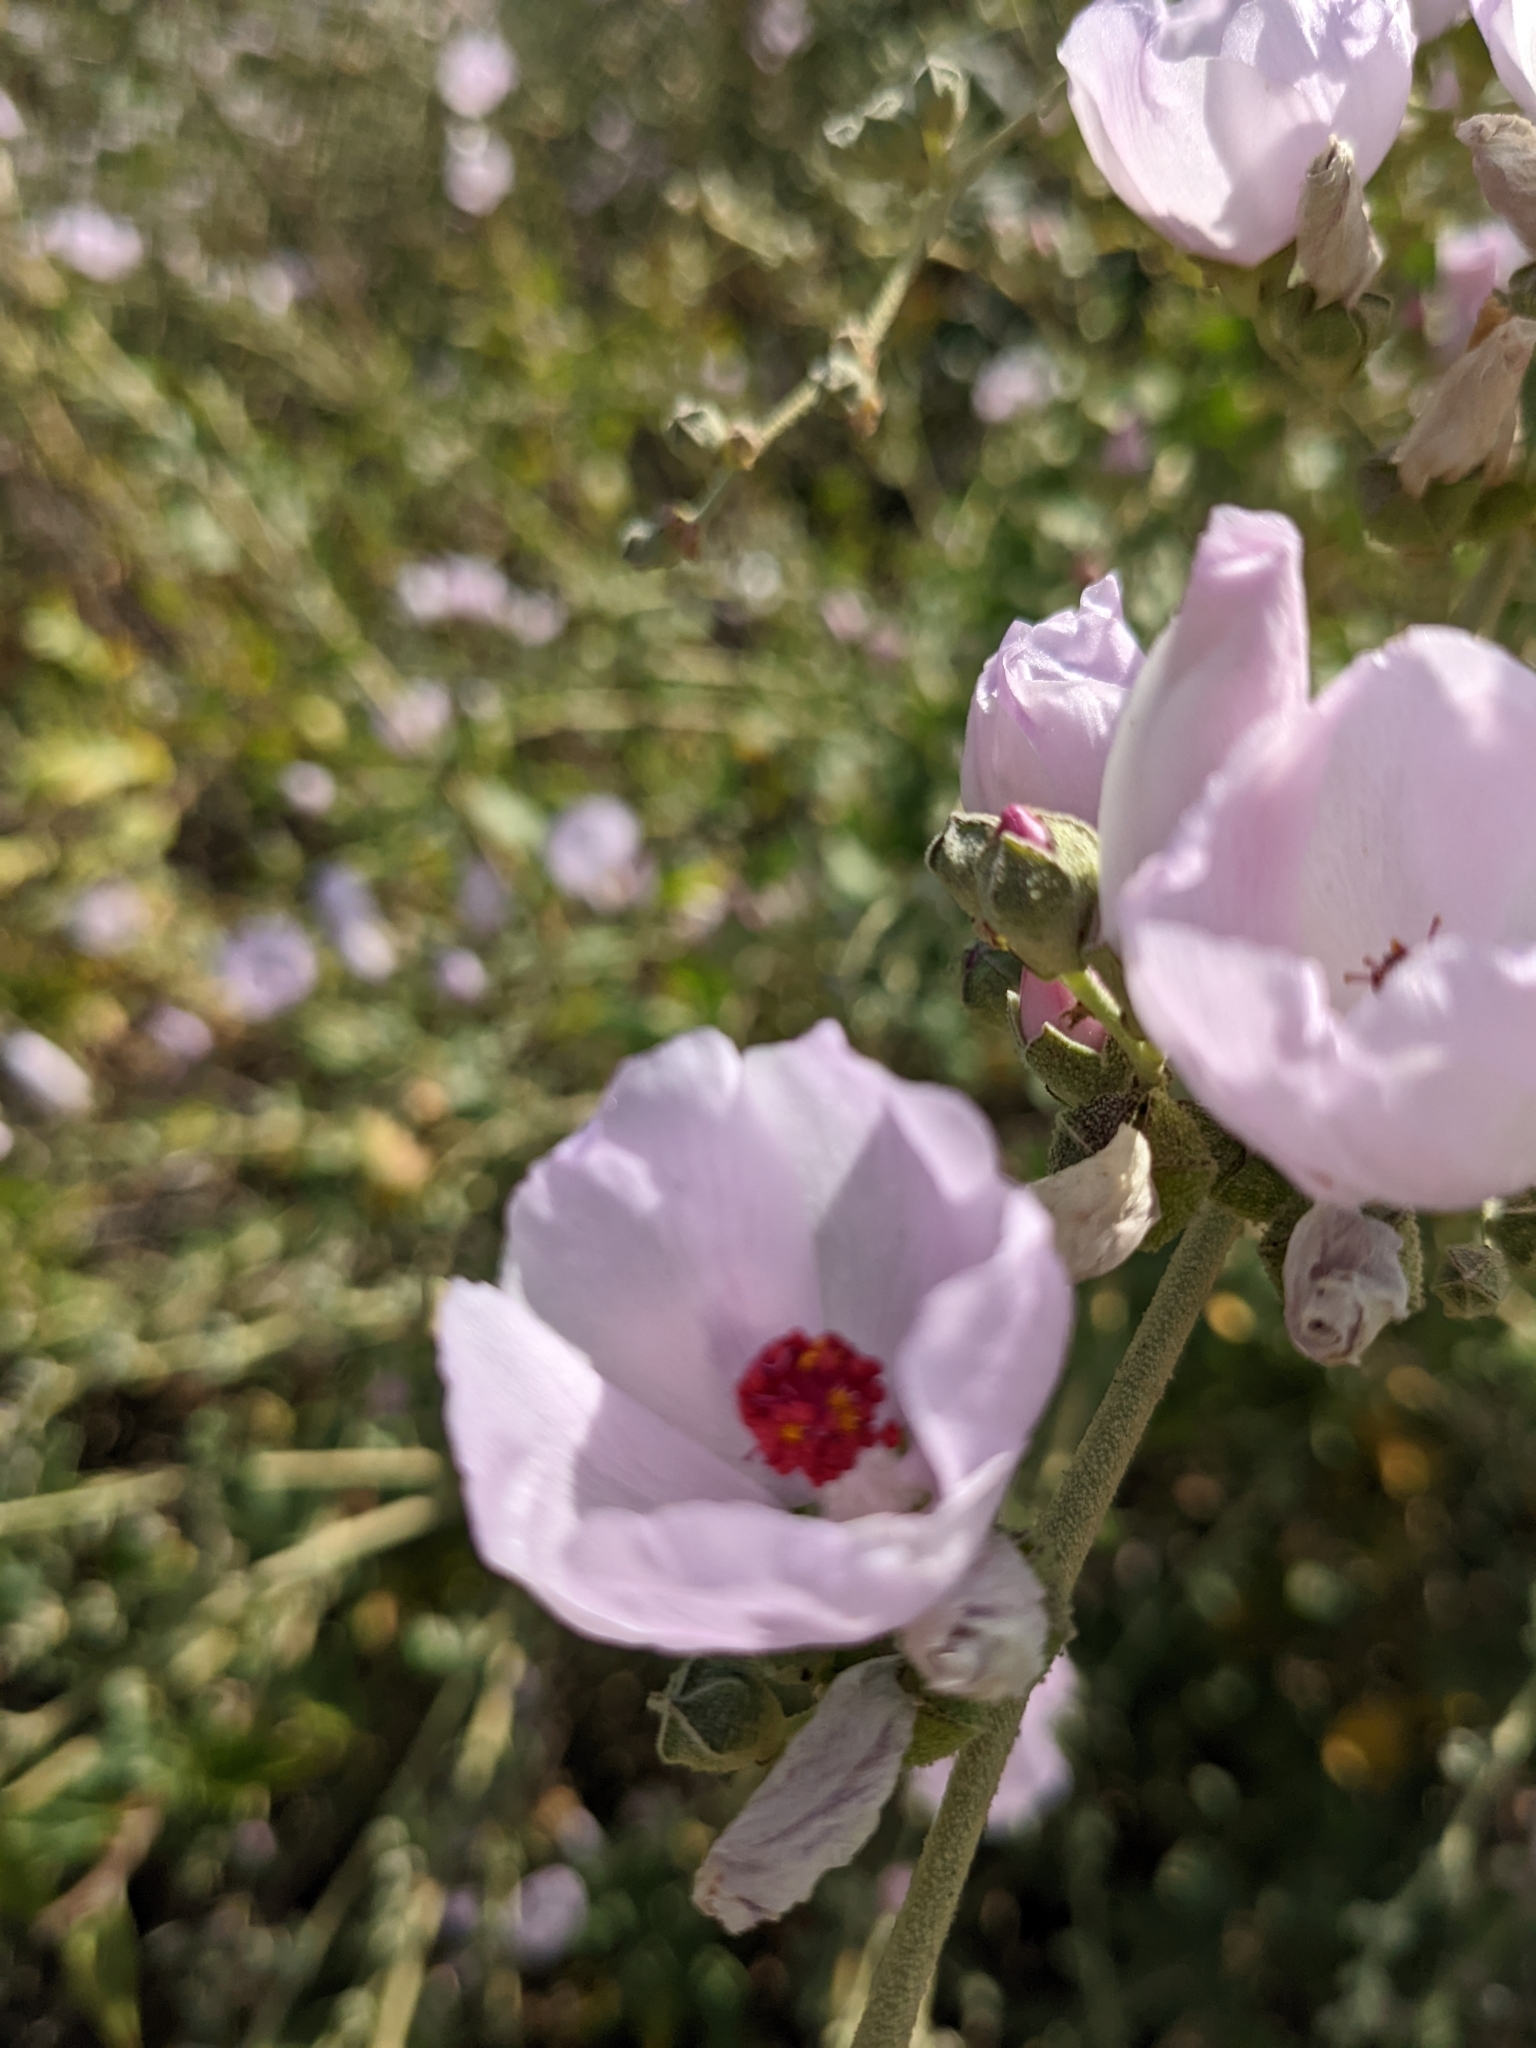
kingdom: Plantae
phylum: Tracheophyta
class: Magnoliopsida
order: Malvales
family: Malvaceae
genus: Malacothamnus
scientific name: Malacothamnus fasciculatus
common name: Sant cruz island bush-mallow
